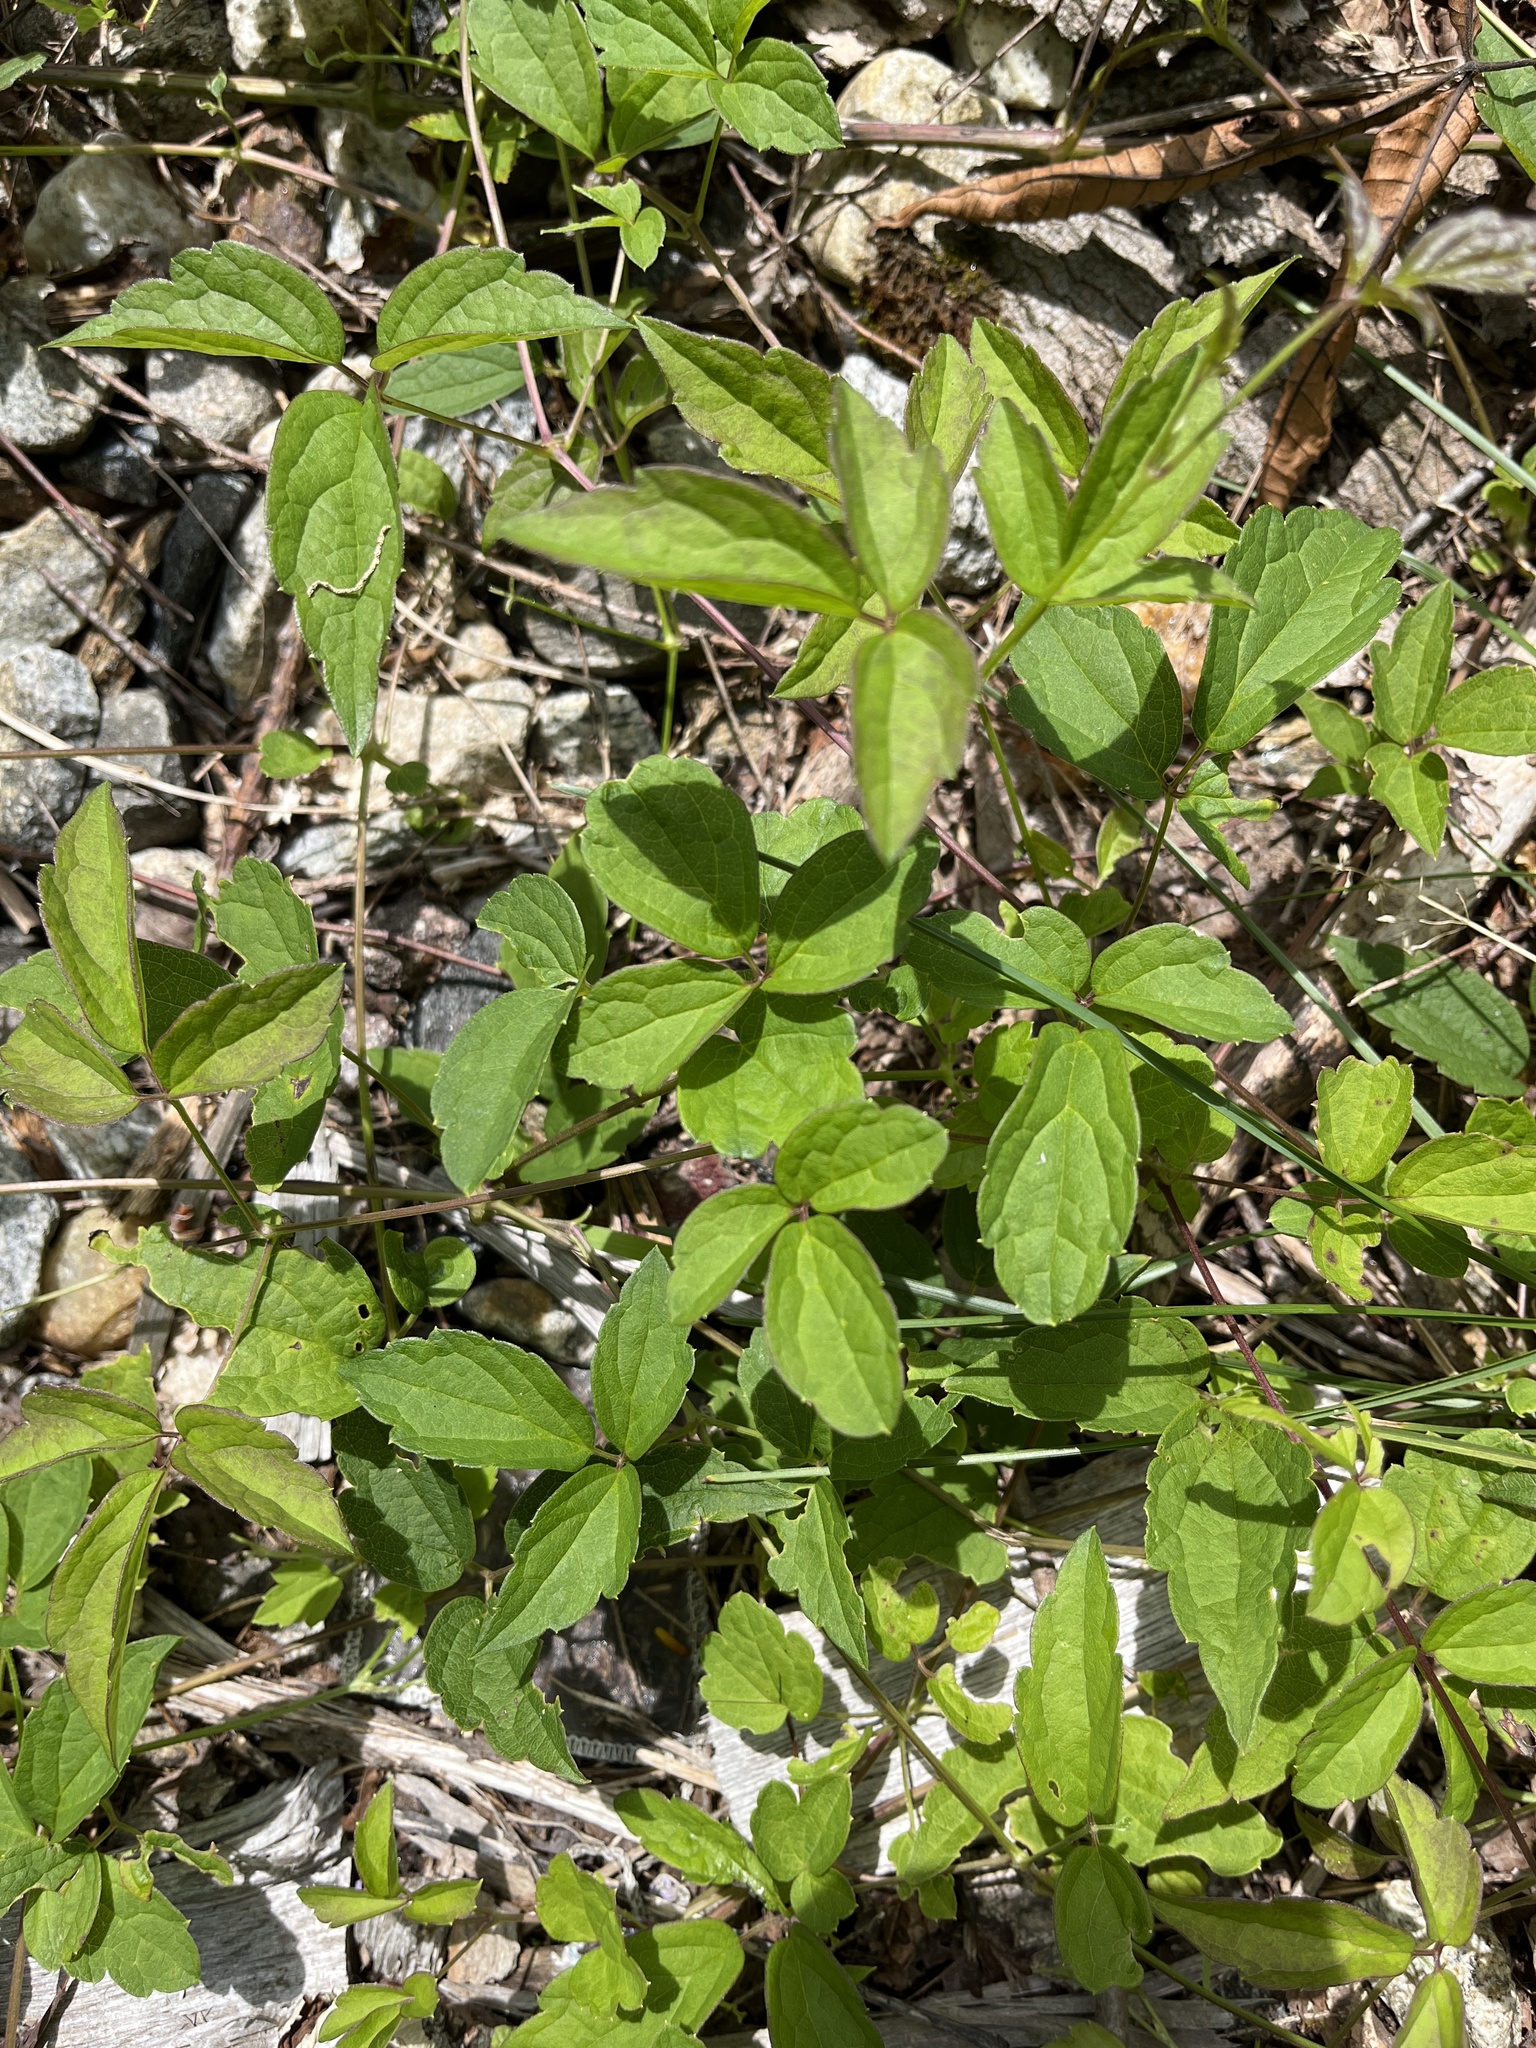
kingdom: Plantae
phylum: Tracheophyta
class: Magnoliopsida
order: Ranunculales
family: Ranunculaceae
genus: Clematis
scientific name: Clematis virginiana
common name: Virgin's-bower
